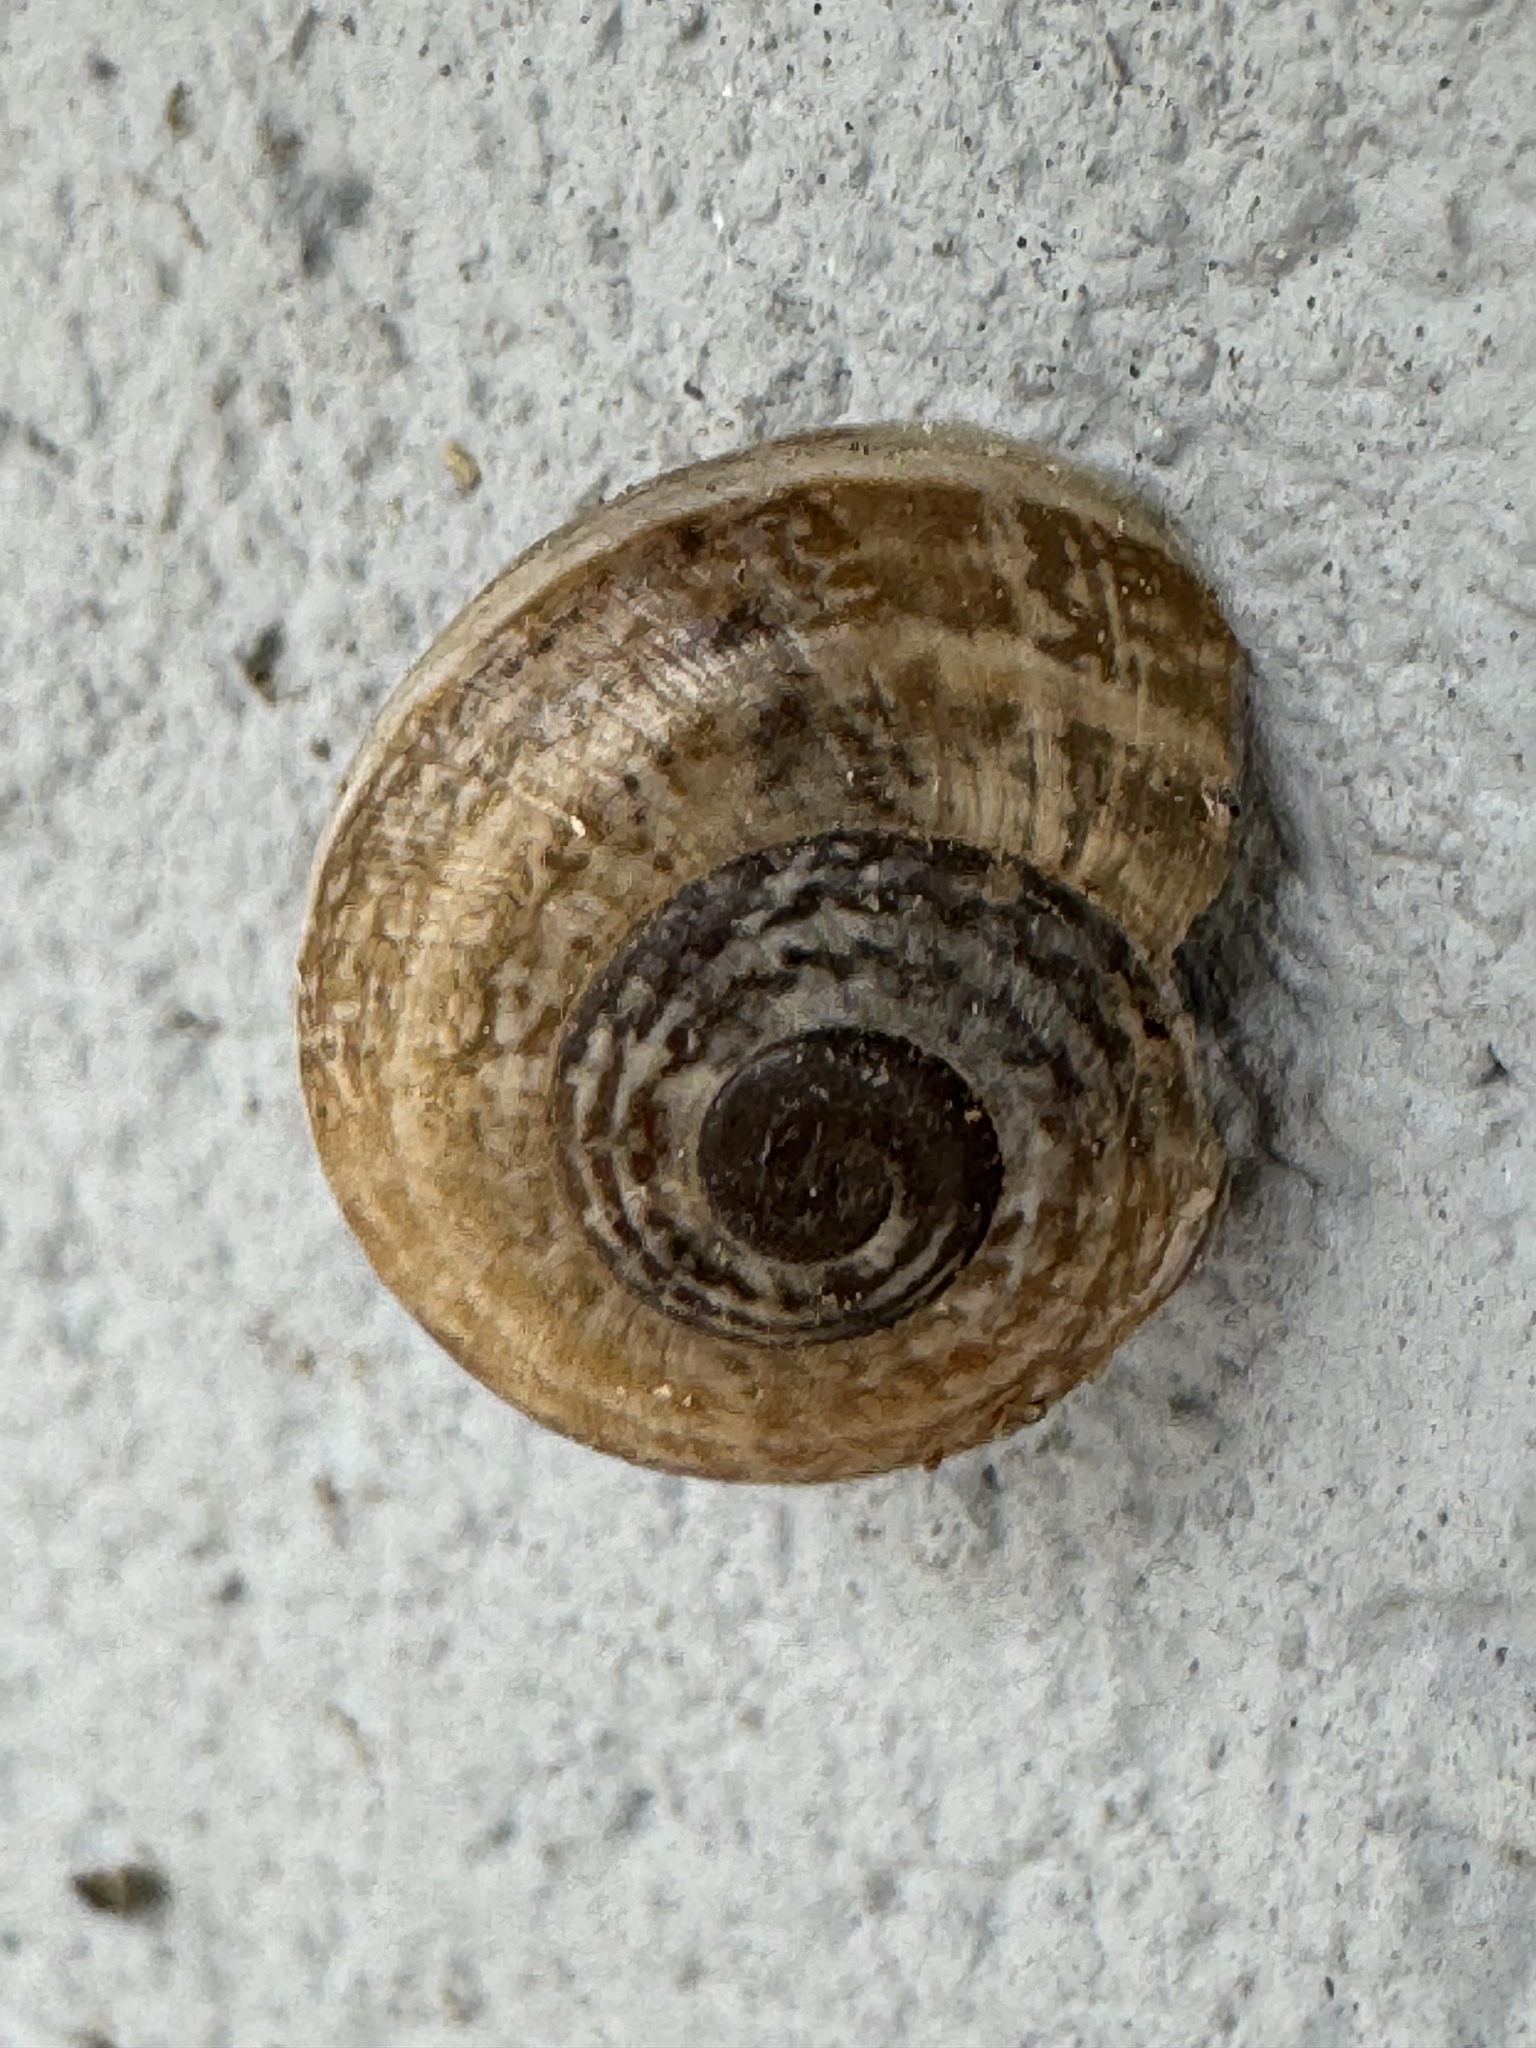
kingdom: Animalia
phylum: Mollusca
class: Gastropoda
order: Stylommatophora
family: Helicidae
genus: Otala
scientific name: Otala lactea
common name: Milk snail
